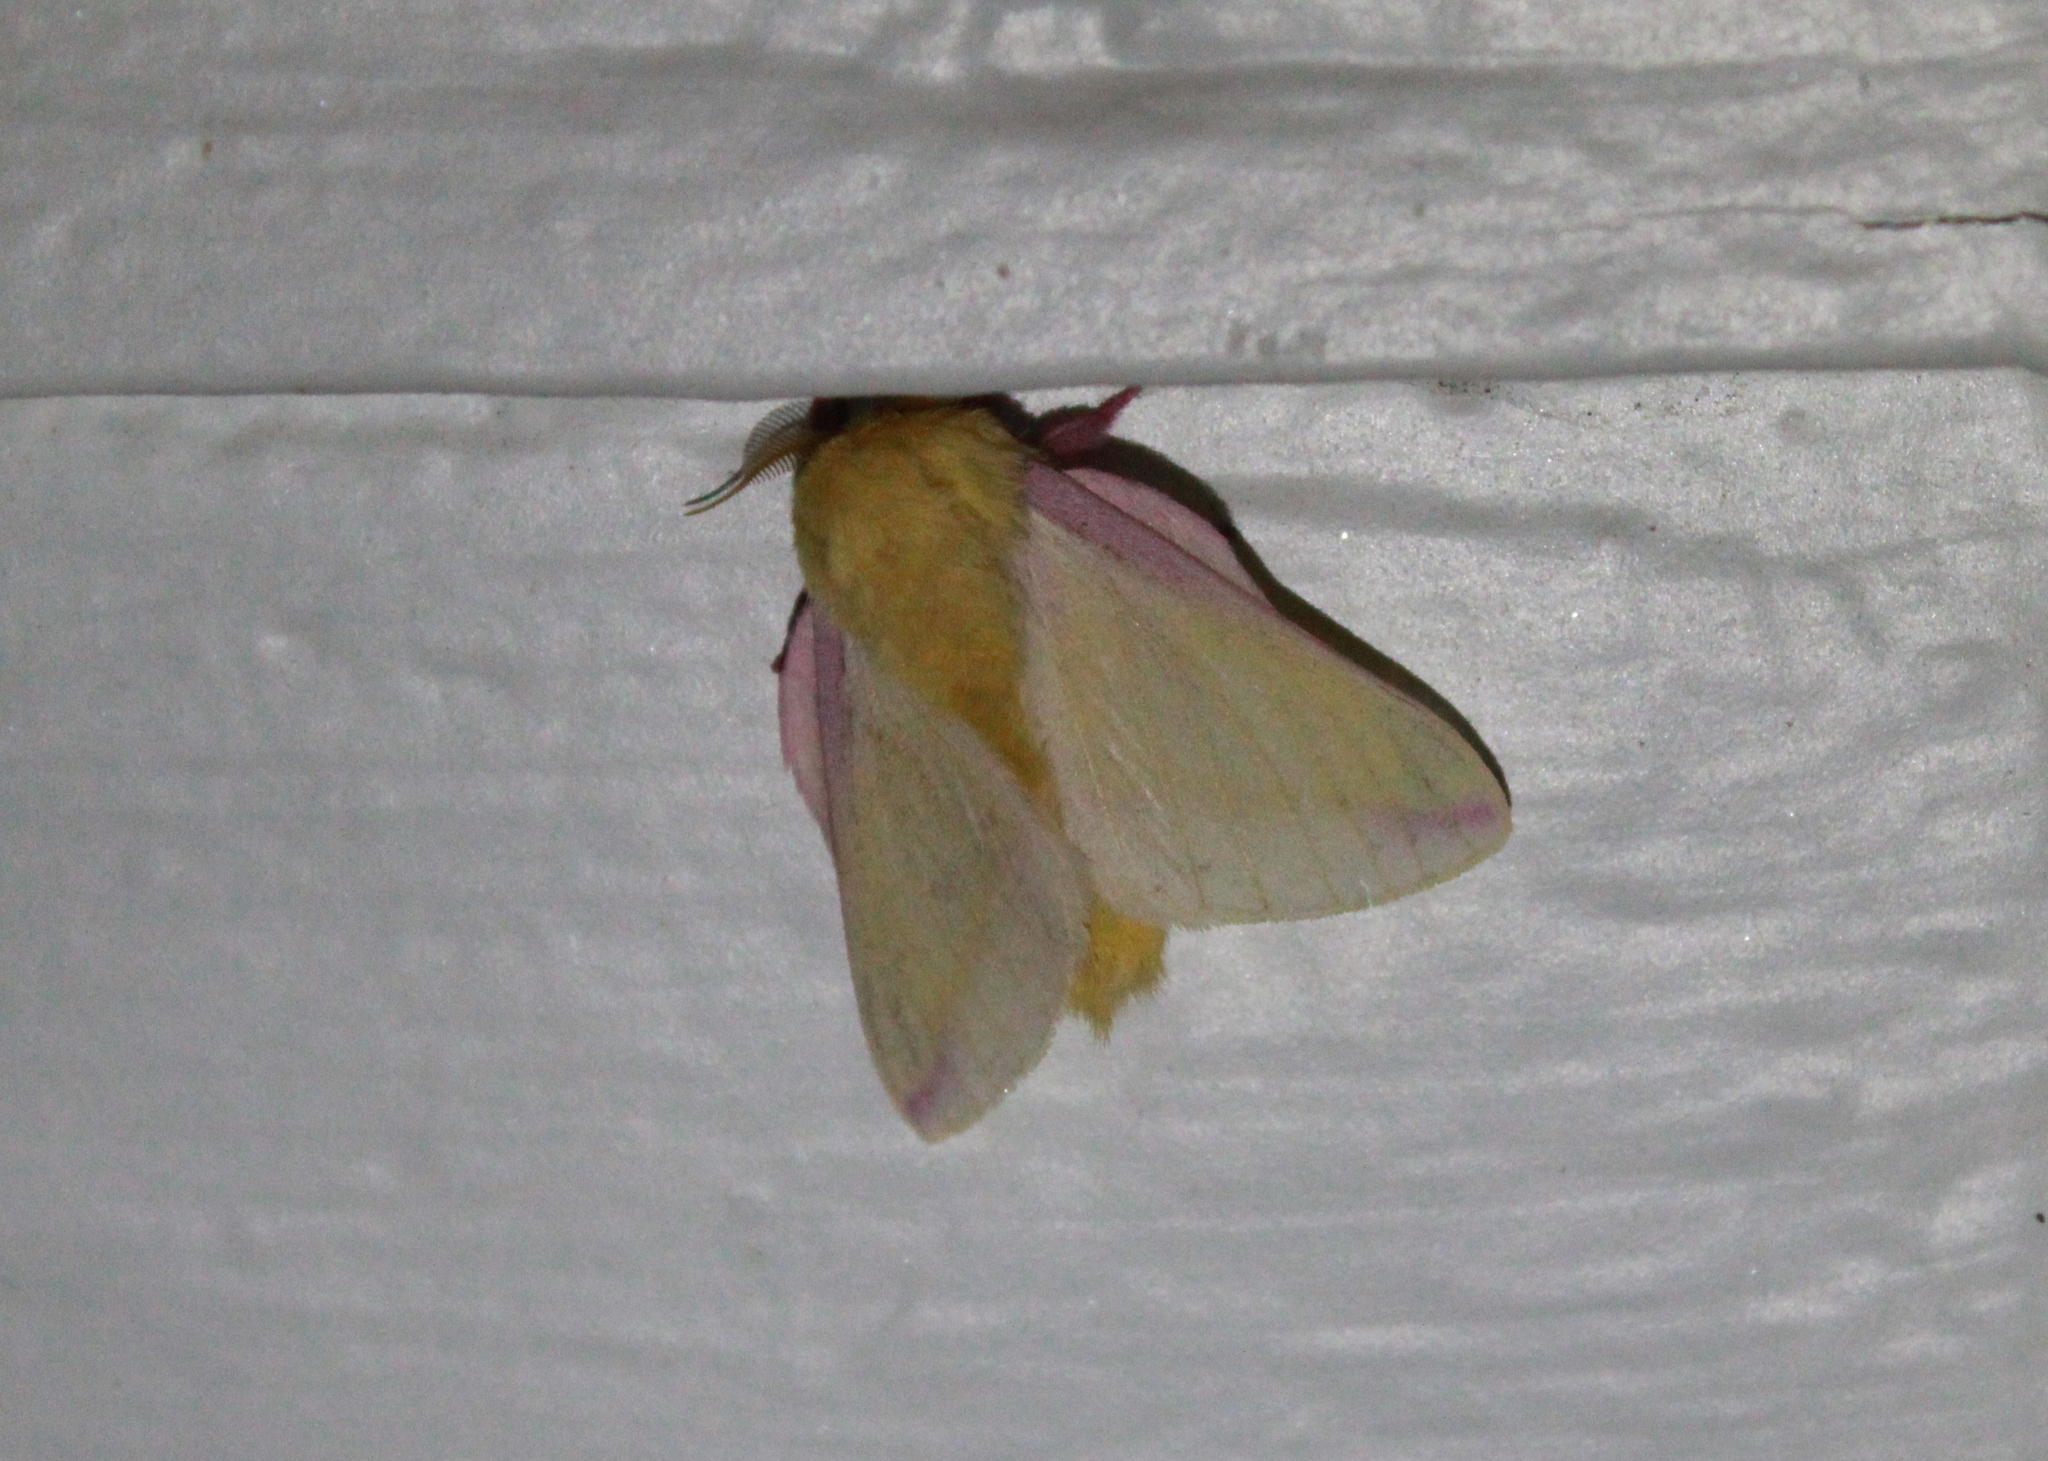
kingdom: Animalia
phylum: Arthropoda
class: Insecta
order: Lepidoptera
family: Saturniidae
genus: Dryocampa
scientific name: Dryocampa rubicunda
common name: Rosy maple moth
